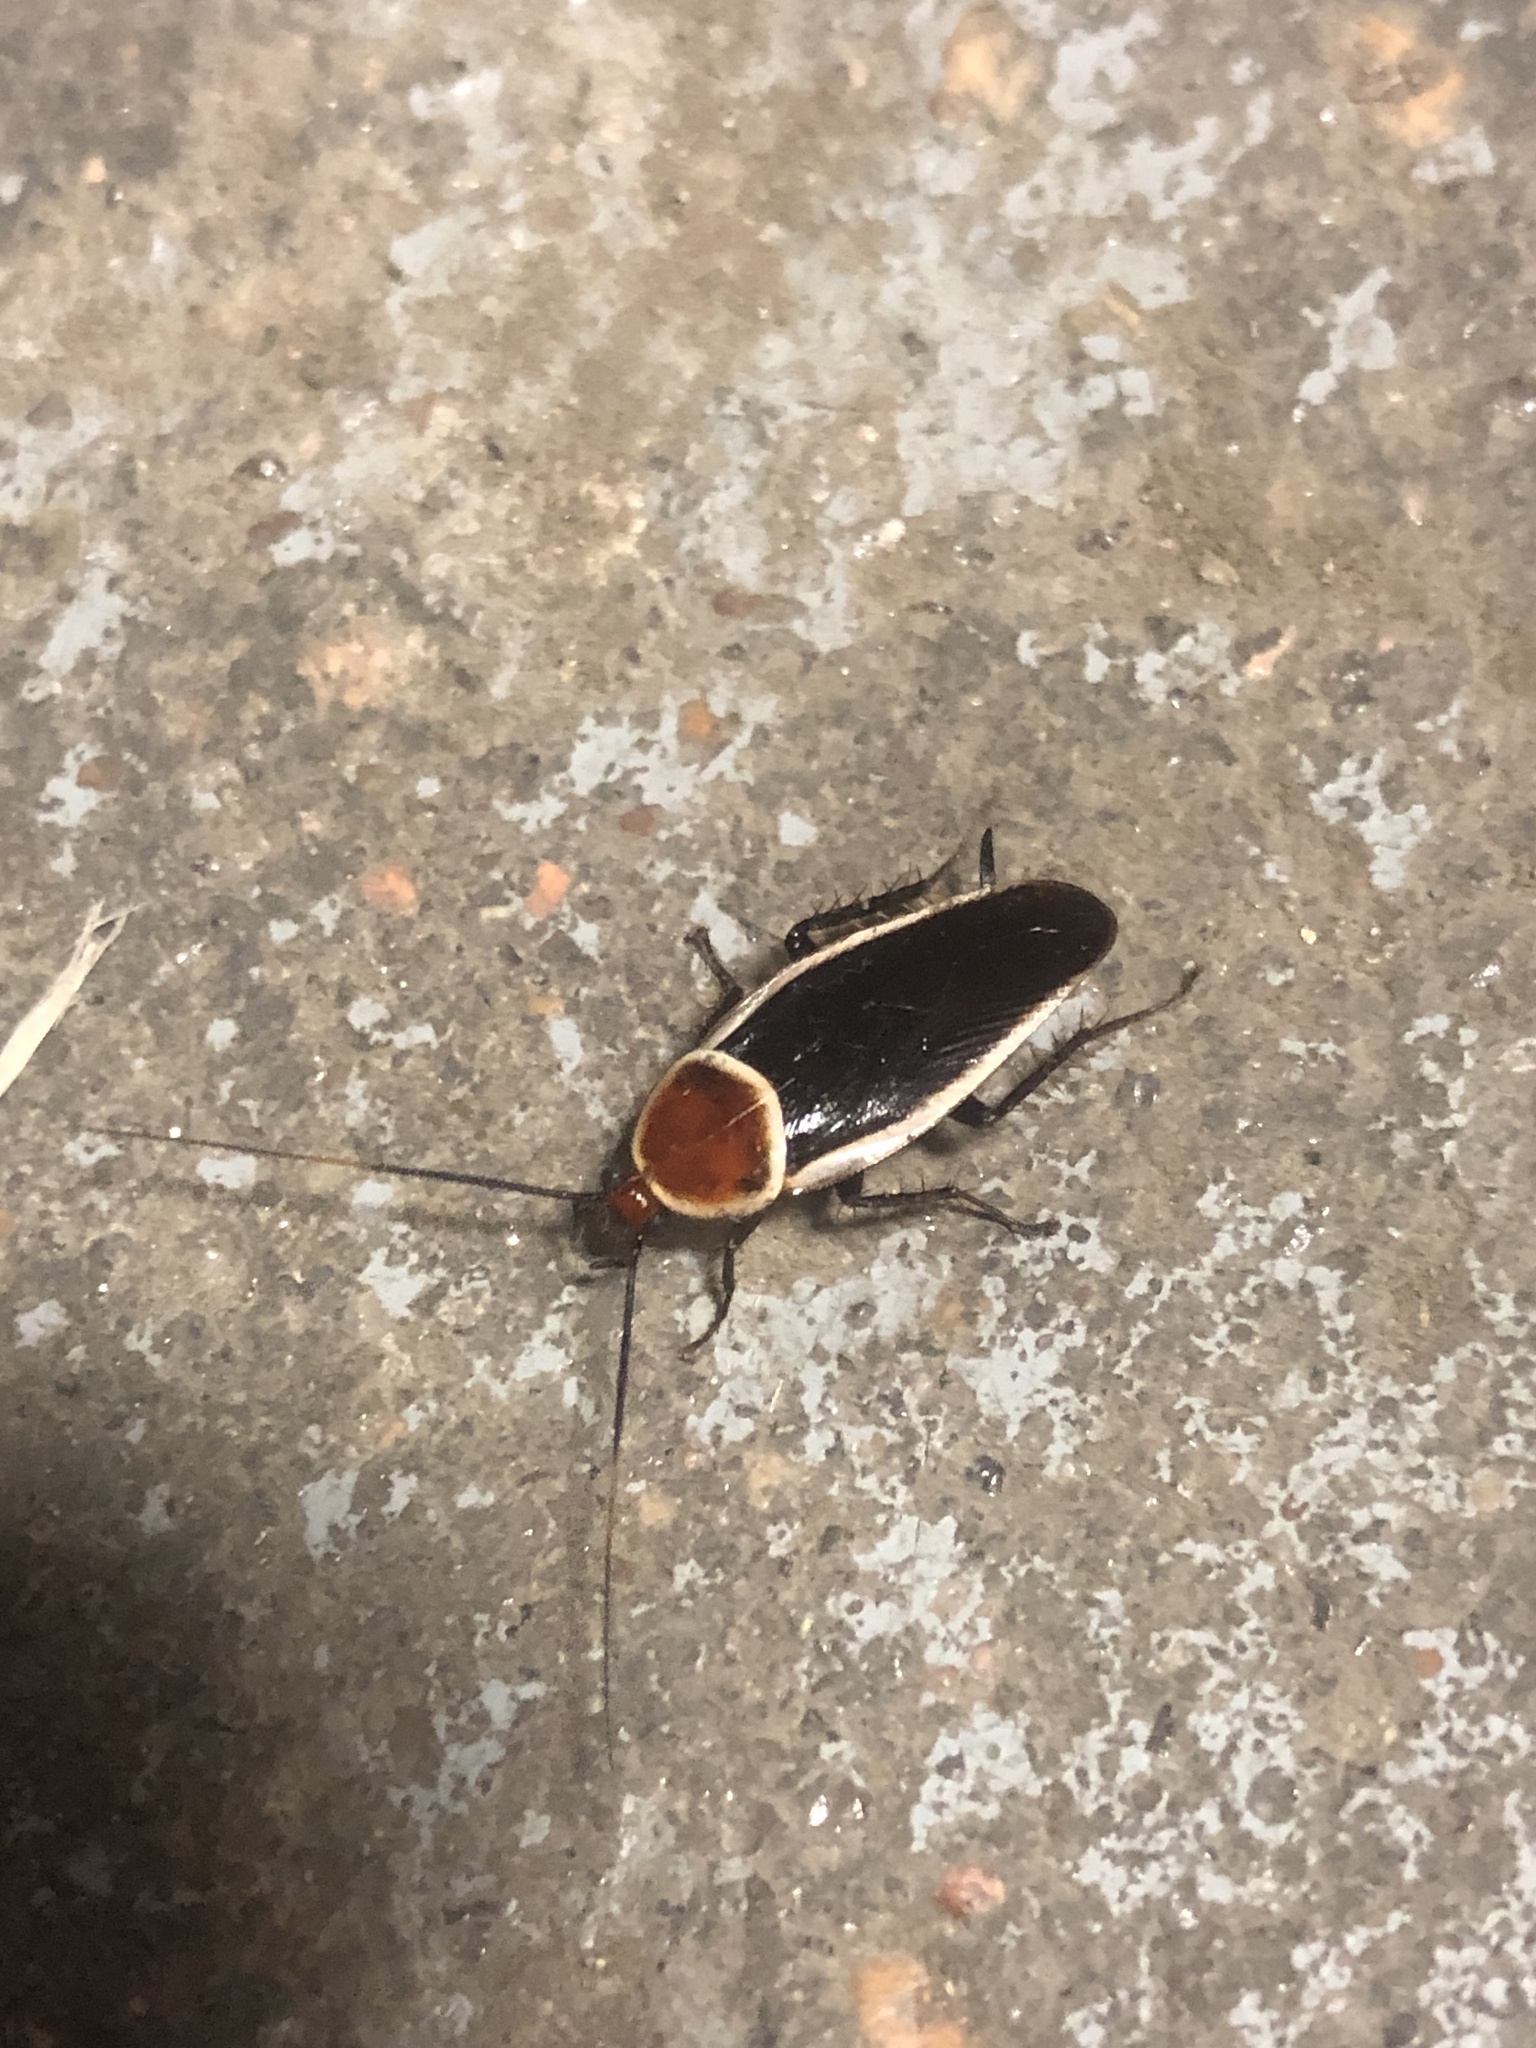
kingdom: Animalia
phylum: Arthropoda
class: Insecta
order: Blattodea
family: Ectobiidae
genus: Pseudomops
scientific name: Pseudomops septentrionalis
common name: Pale-bordered field cockroach
